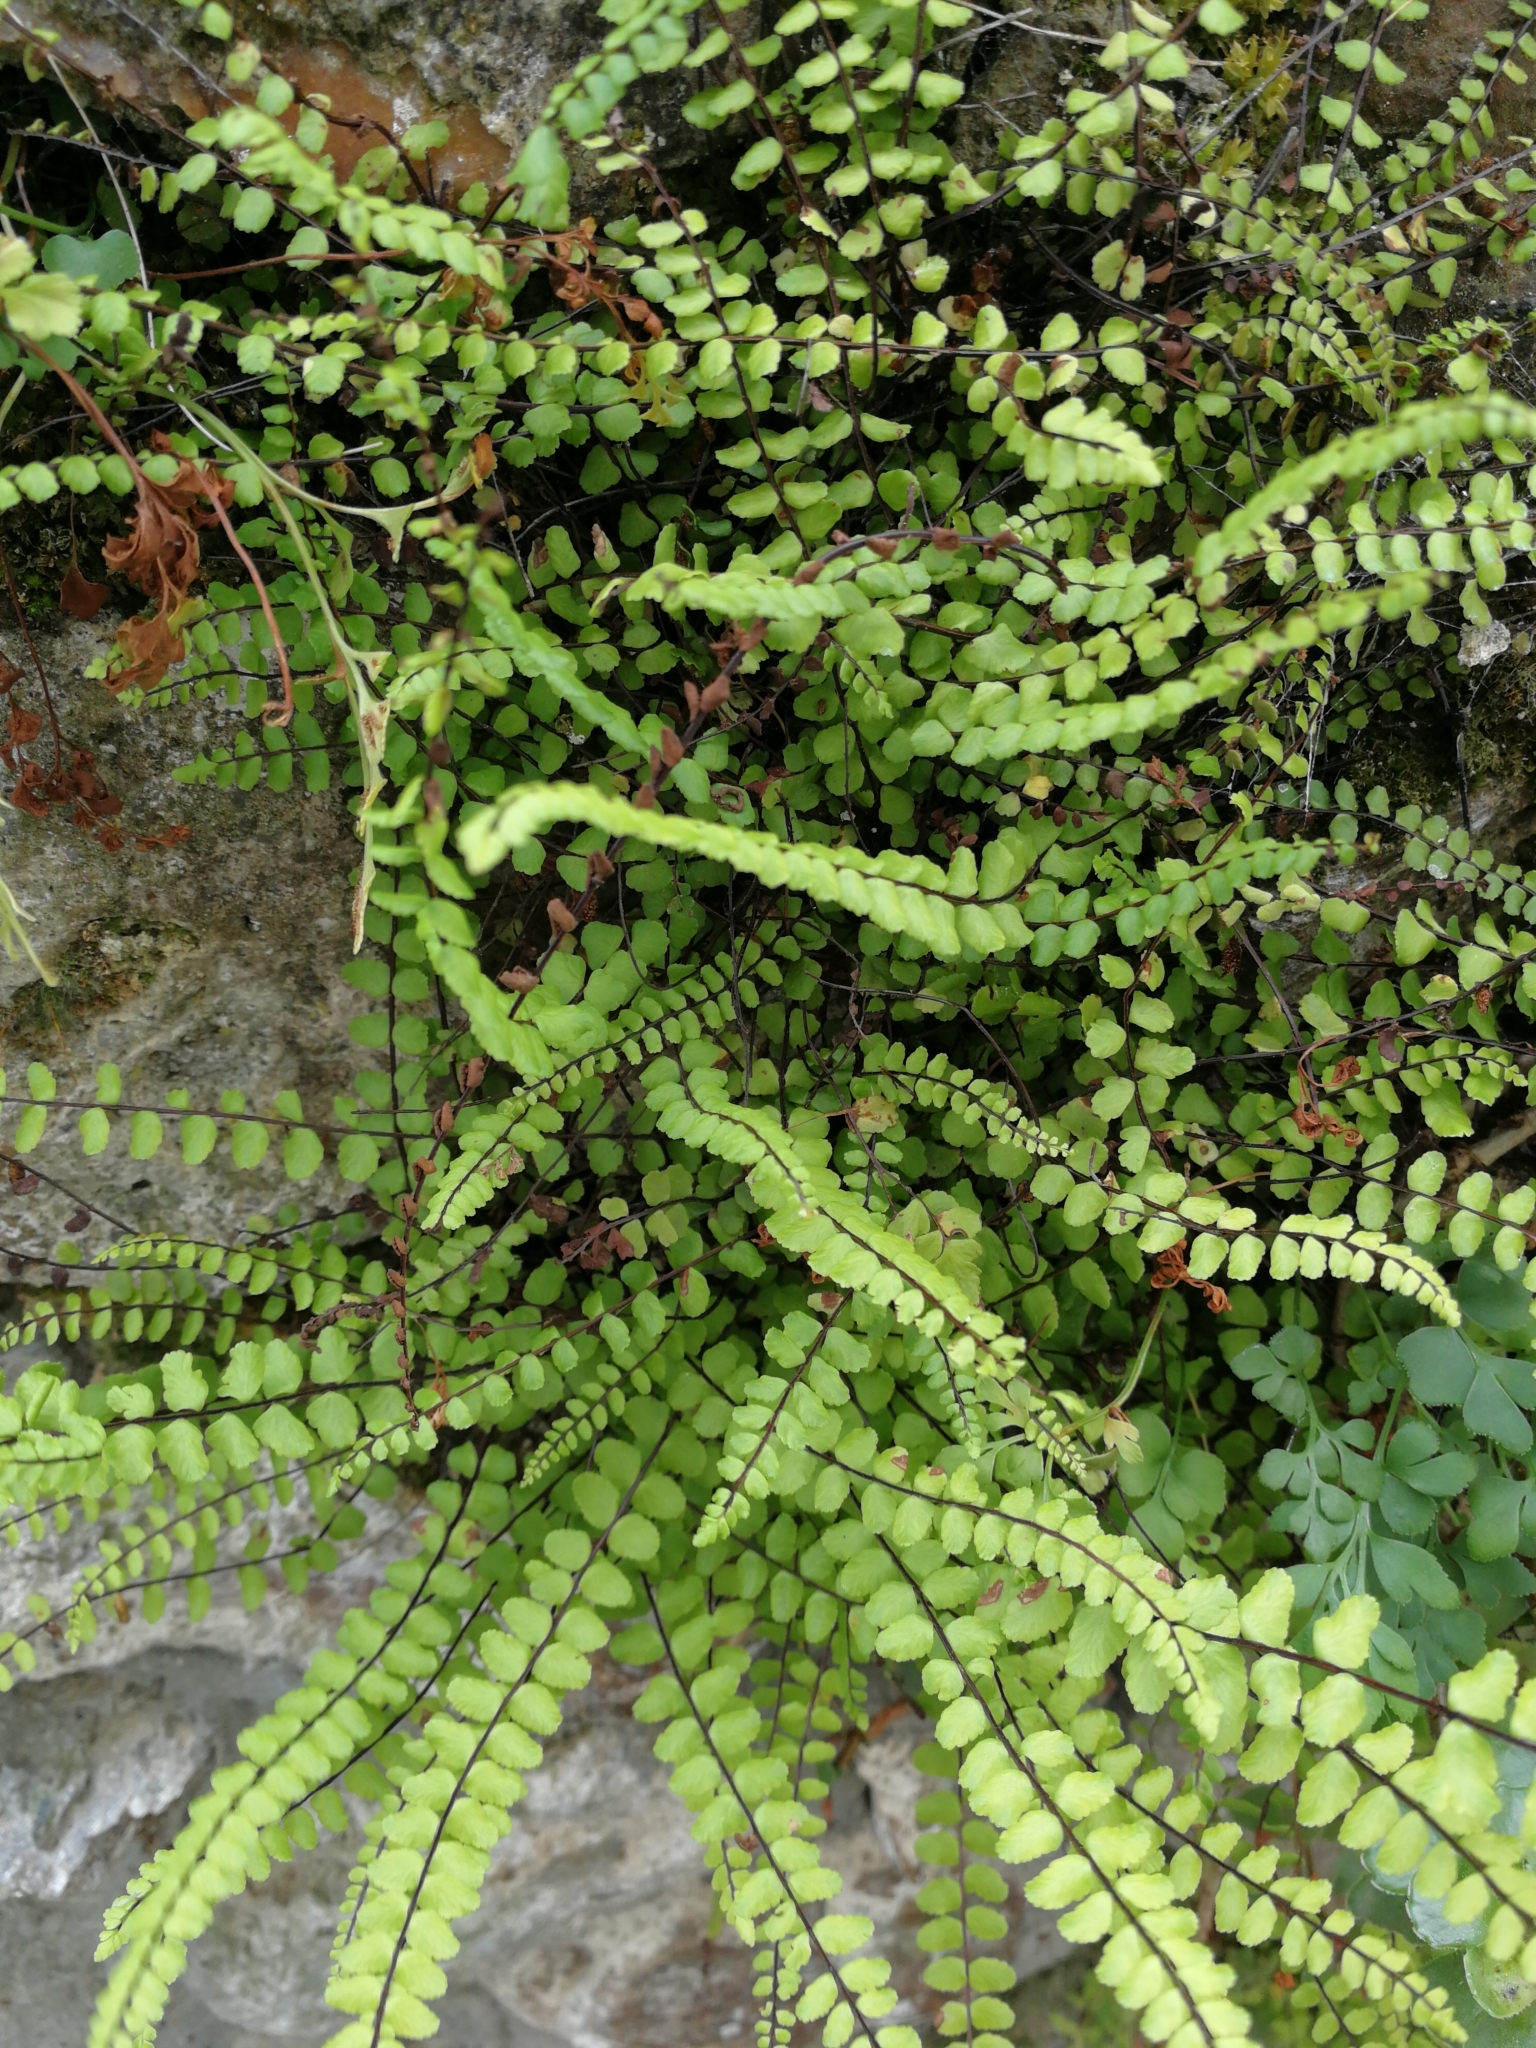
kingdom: Plantae
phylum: Tracheophyta
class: Polypodiopsida
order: Polypodiales
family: Aspleniaceae
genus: Asplenium
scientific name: Asplenium trichomanes
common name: Maidenhair spleenwort
